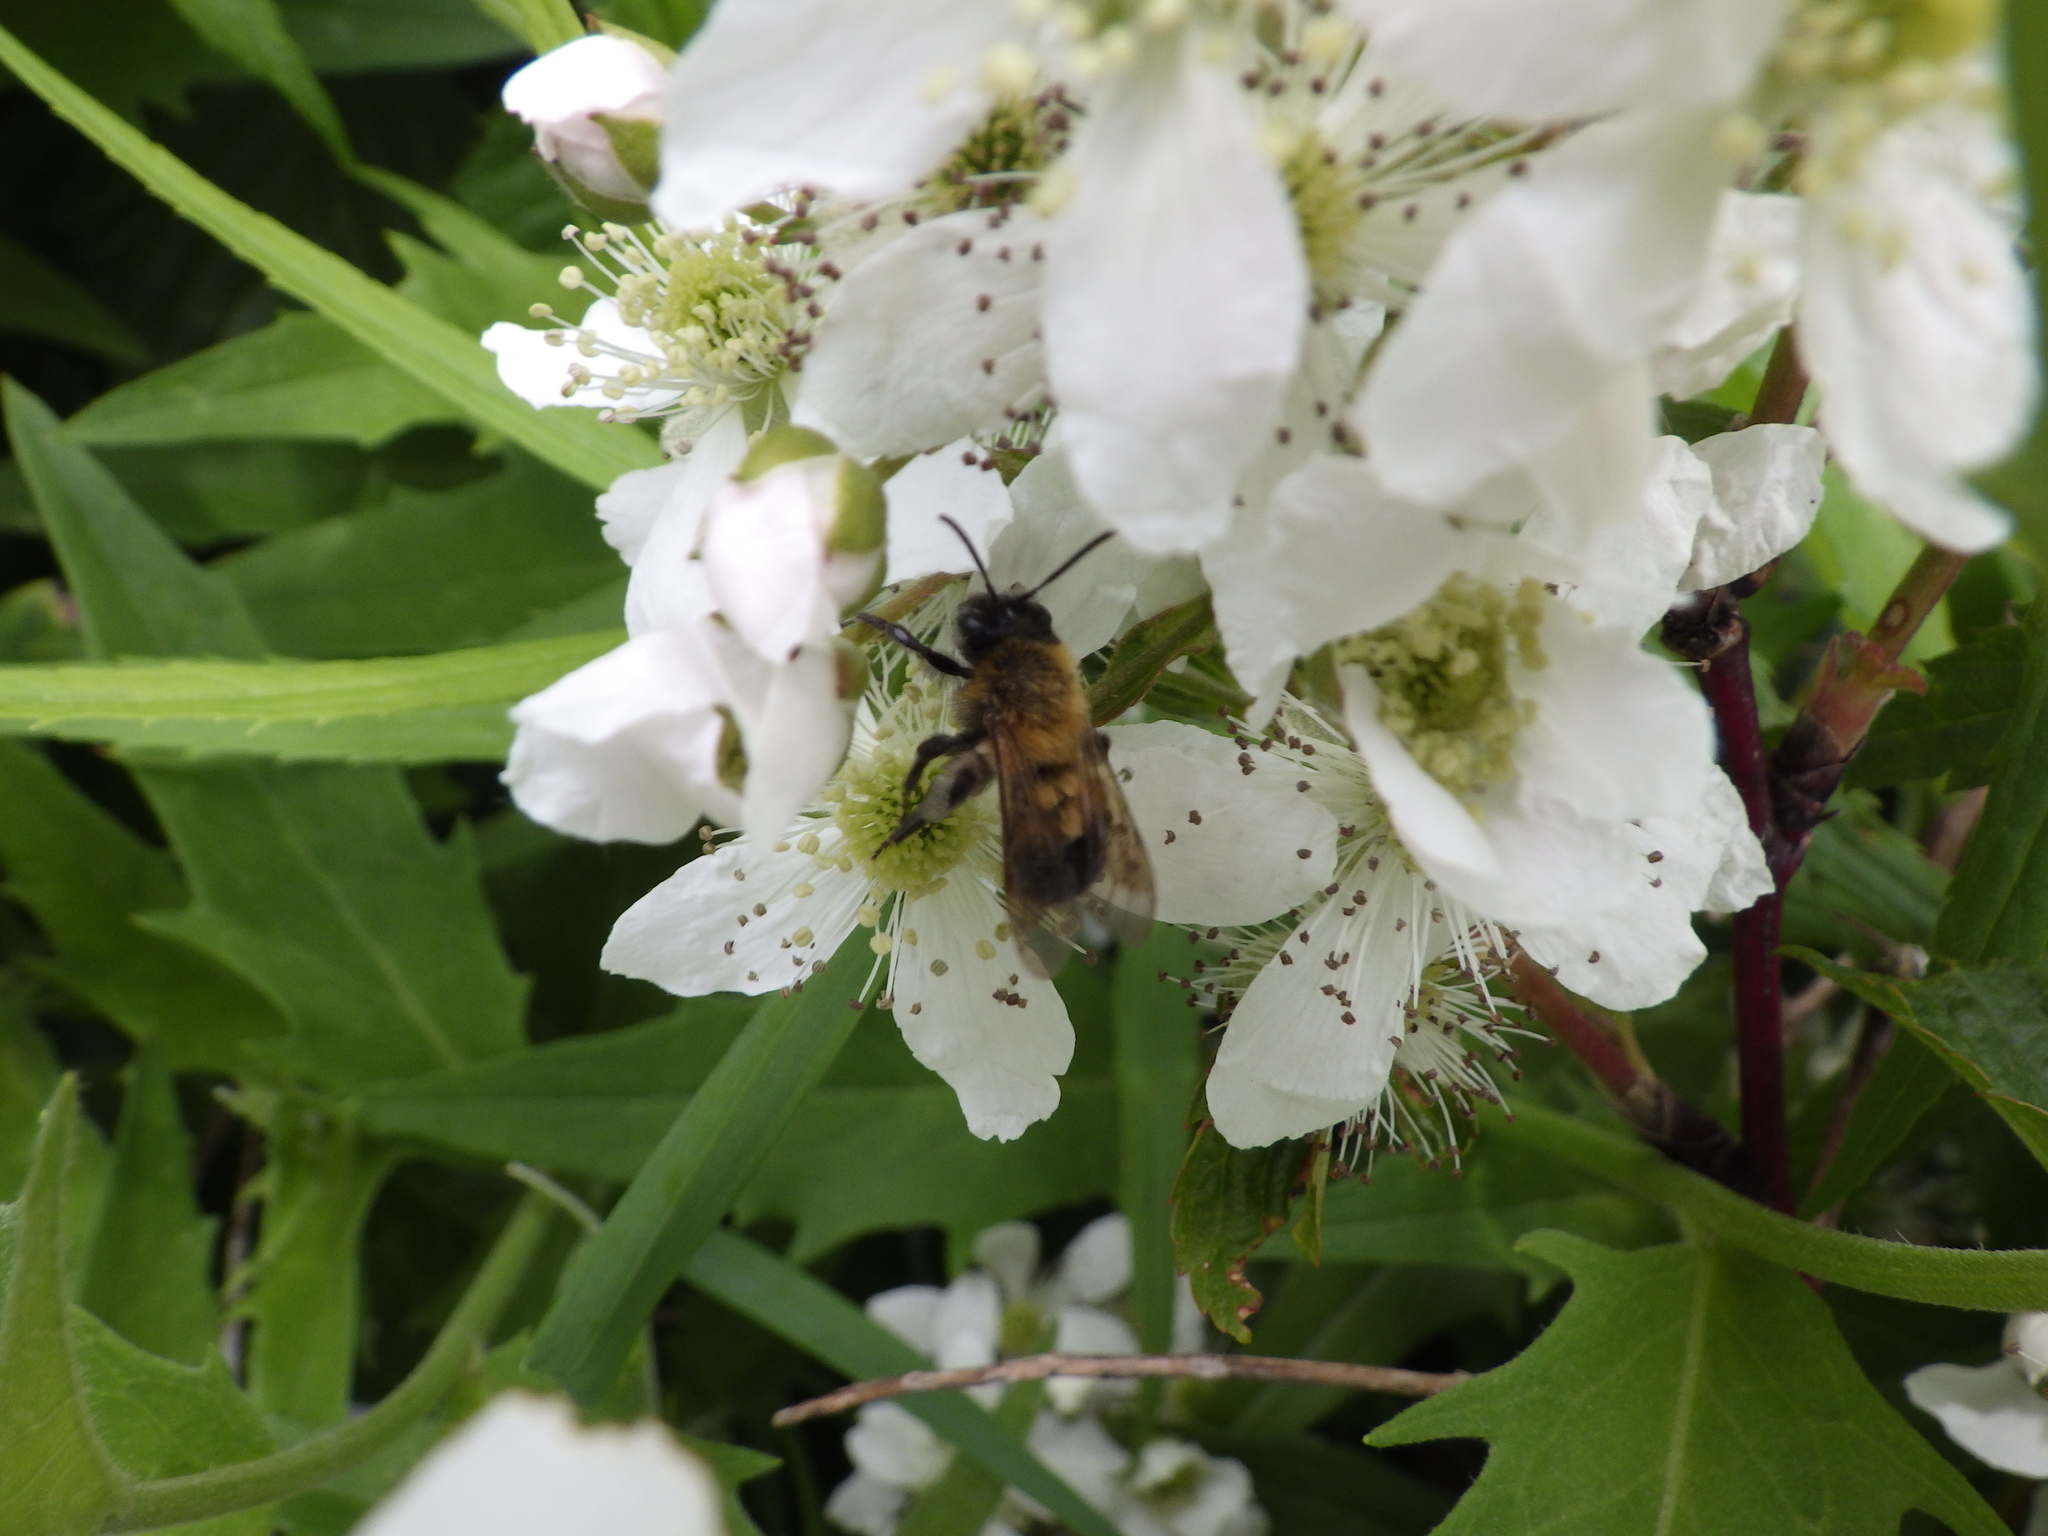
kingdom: Animalia
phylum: Arthropoda
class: Insecta
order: Hymenoptera
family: Andrenidae
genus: Andrena
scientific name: Andrena milwaukeensis
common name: Milwaukee mining bee
